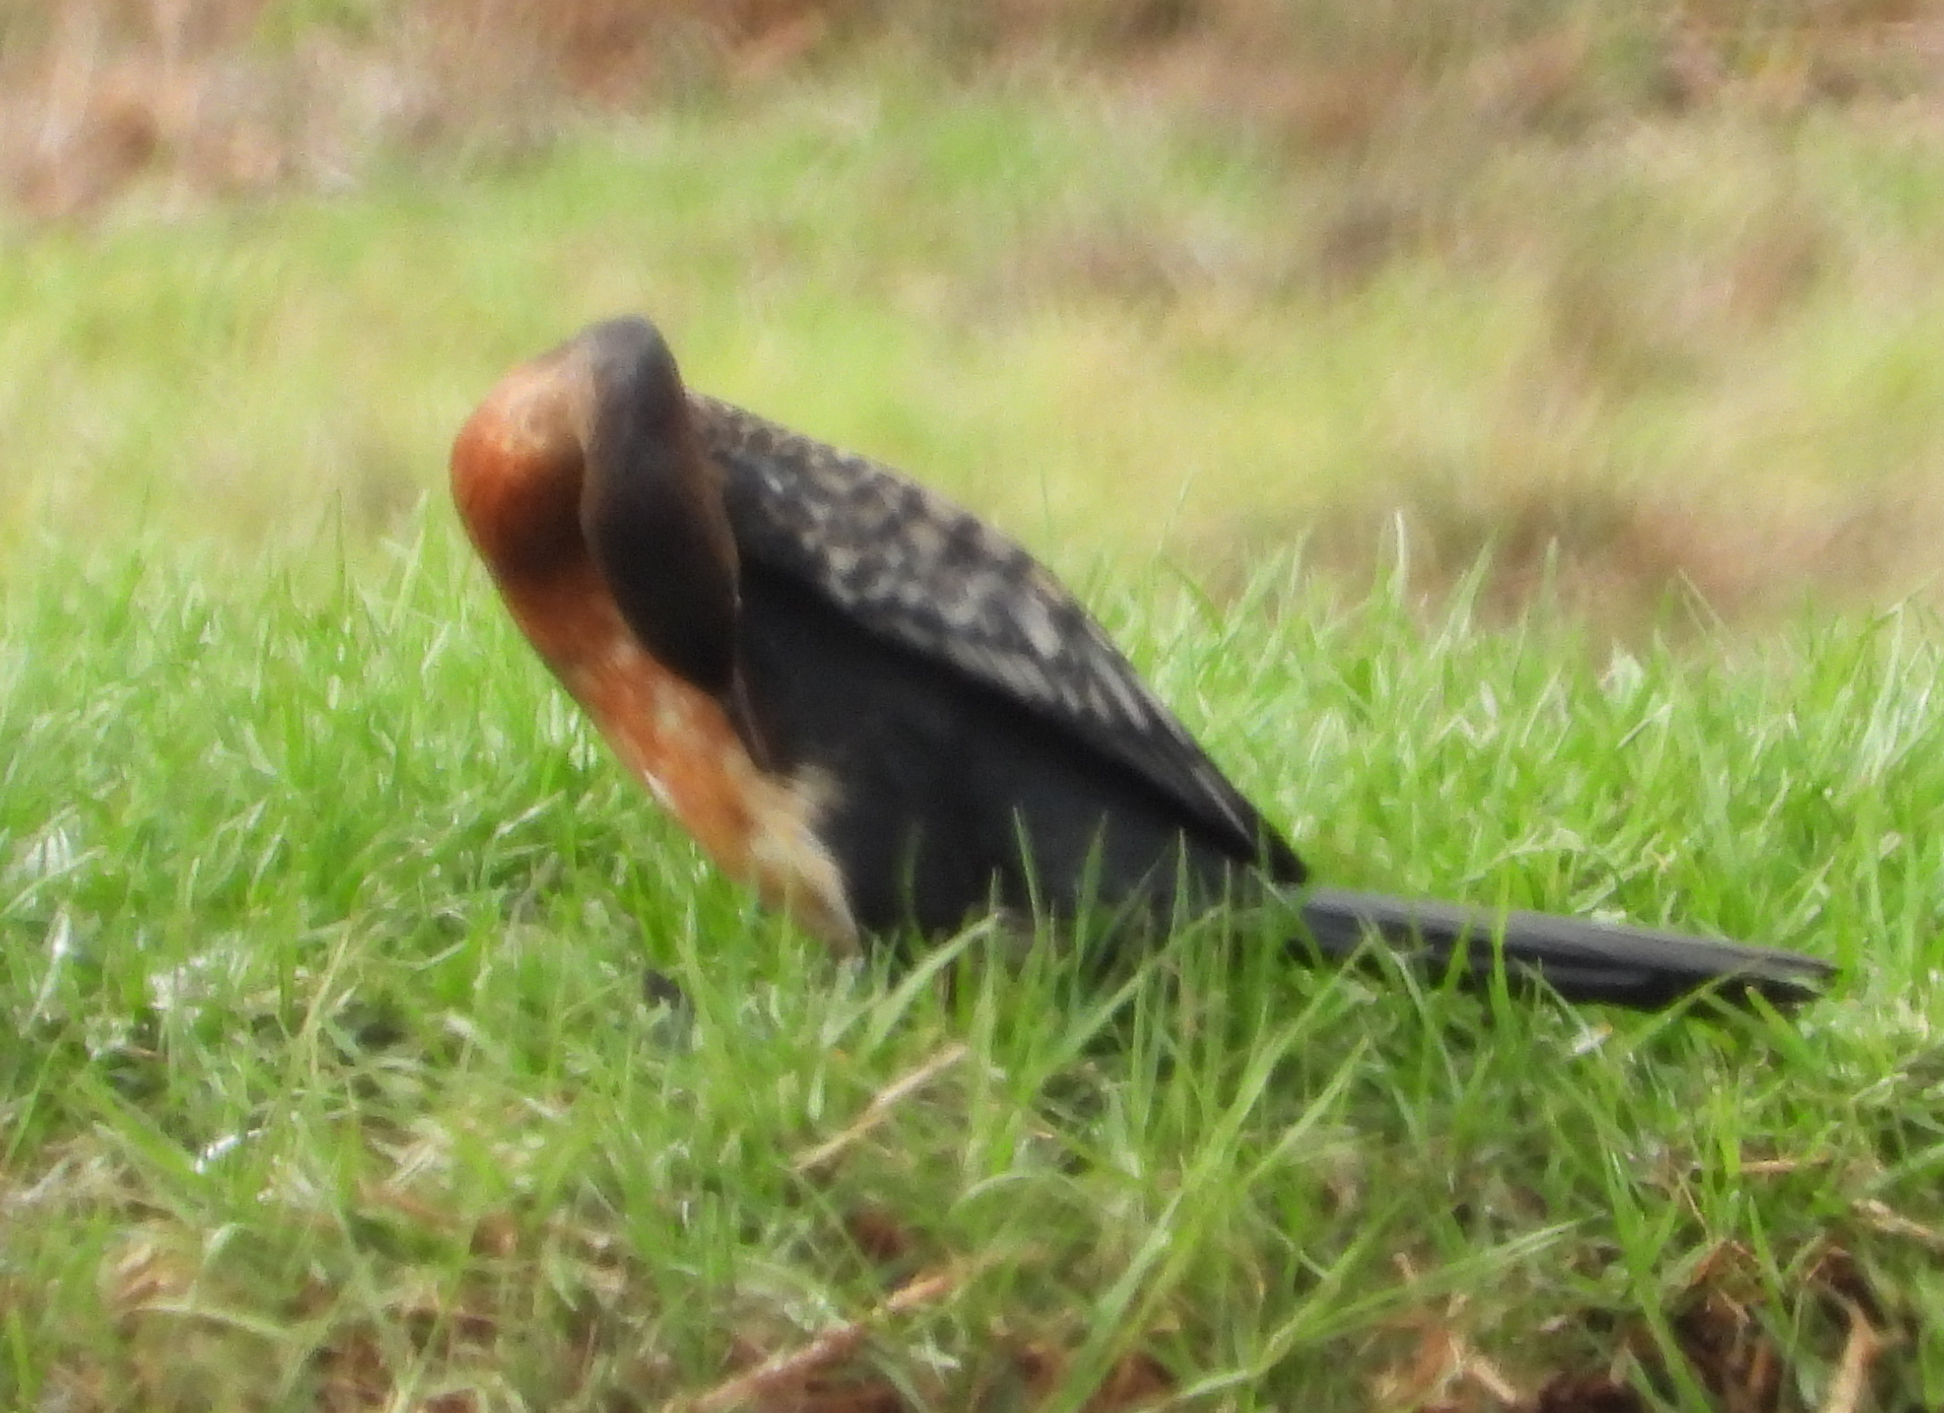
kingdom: Animalia
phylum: Chordata
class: Aves
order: Suliformes
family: Phalacrocoracidae
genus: Microcarbo
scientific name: Microcarbo africanus
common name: Long-tailed cormorant
